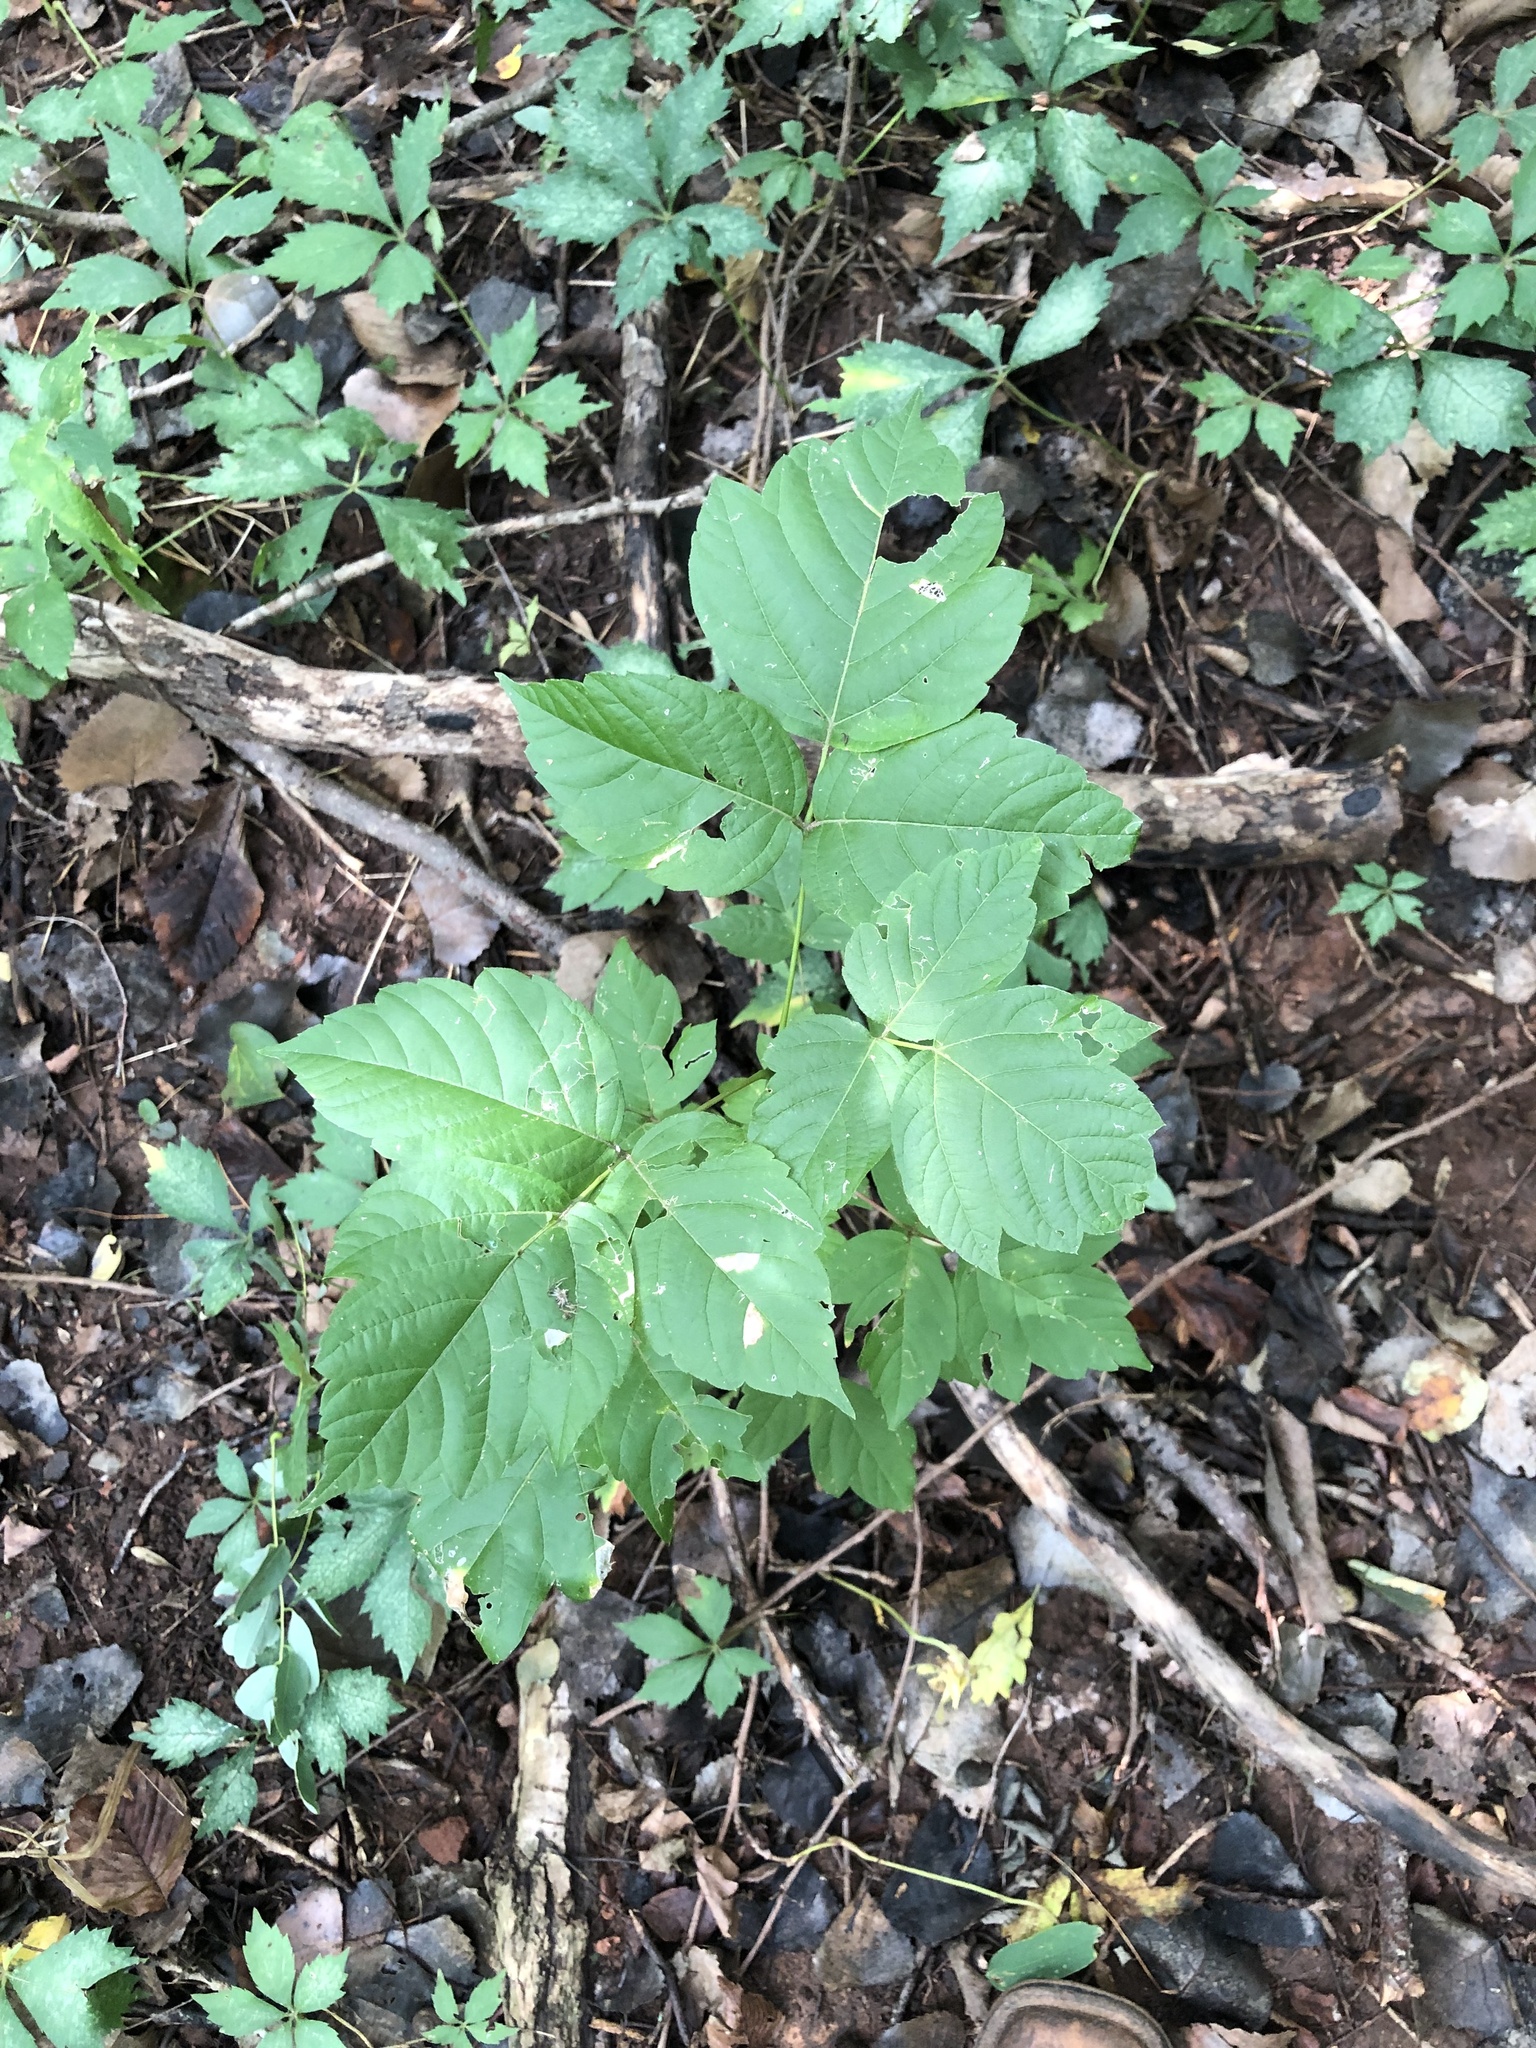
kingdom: Plantae
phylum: Tracheophyta
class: Magnoliopsida
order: Sapindales
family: Anacardiaceae
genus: Toxicodendron
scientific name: Toxicodendron radicans
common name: Poison ivy
